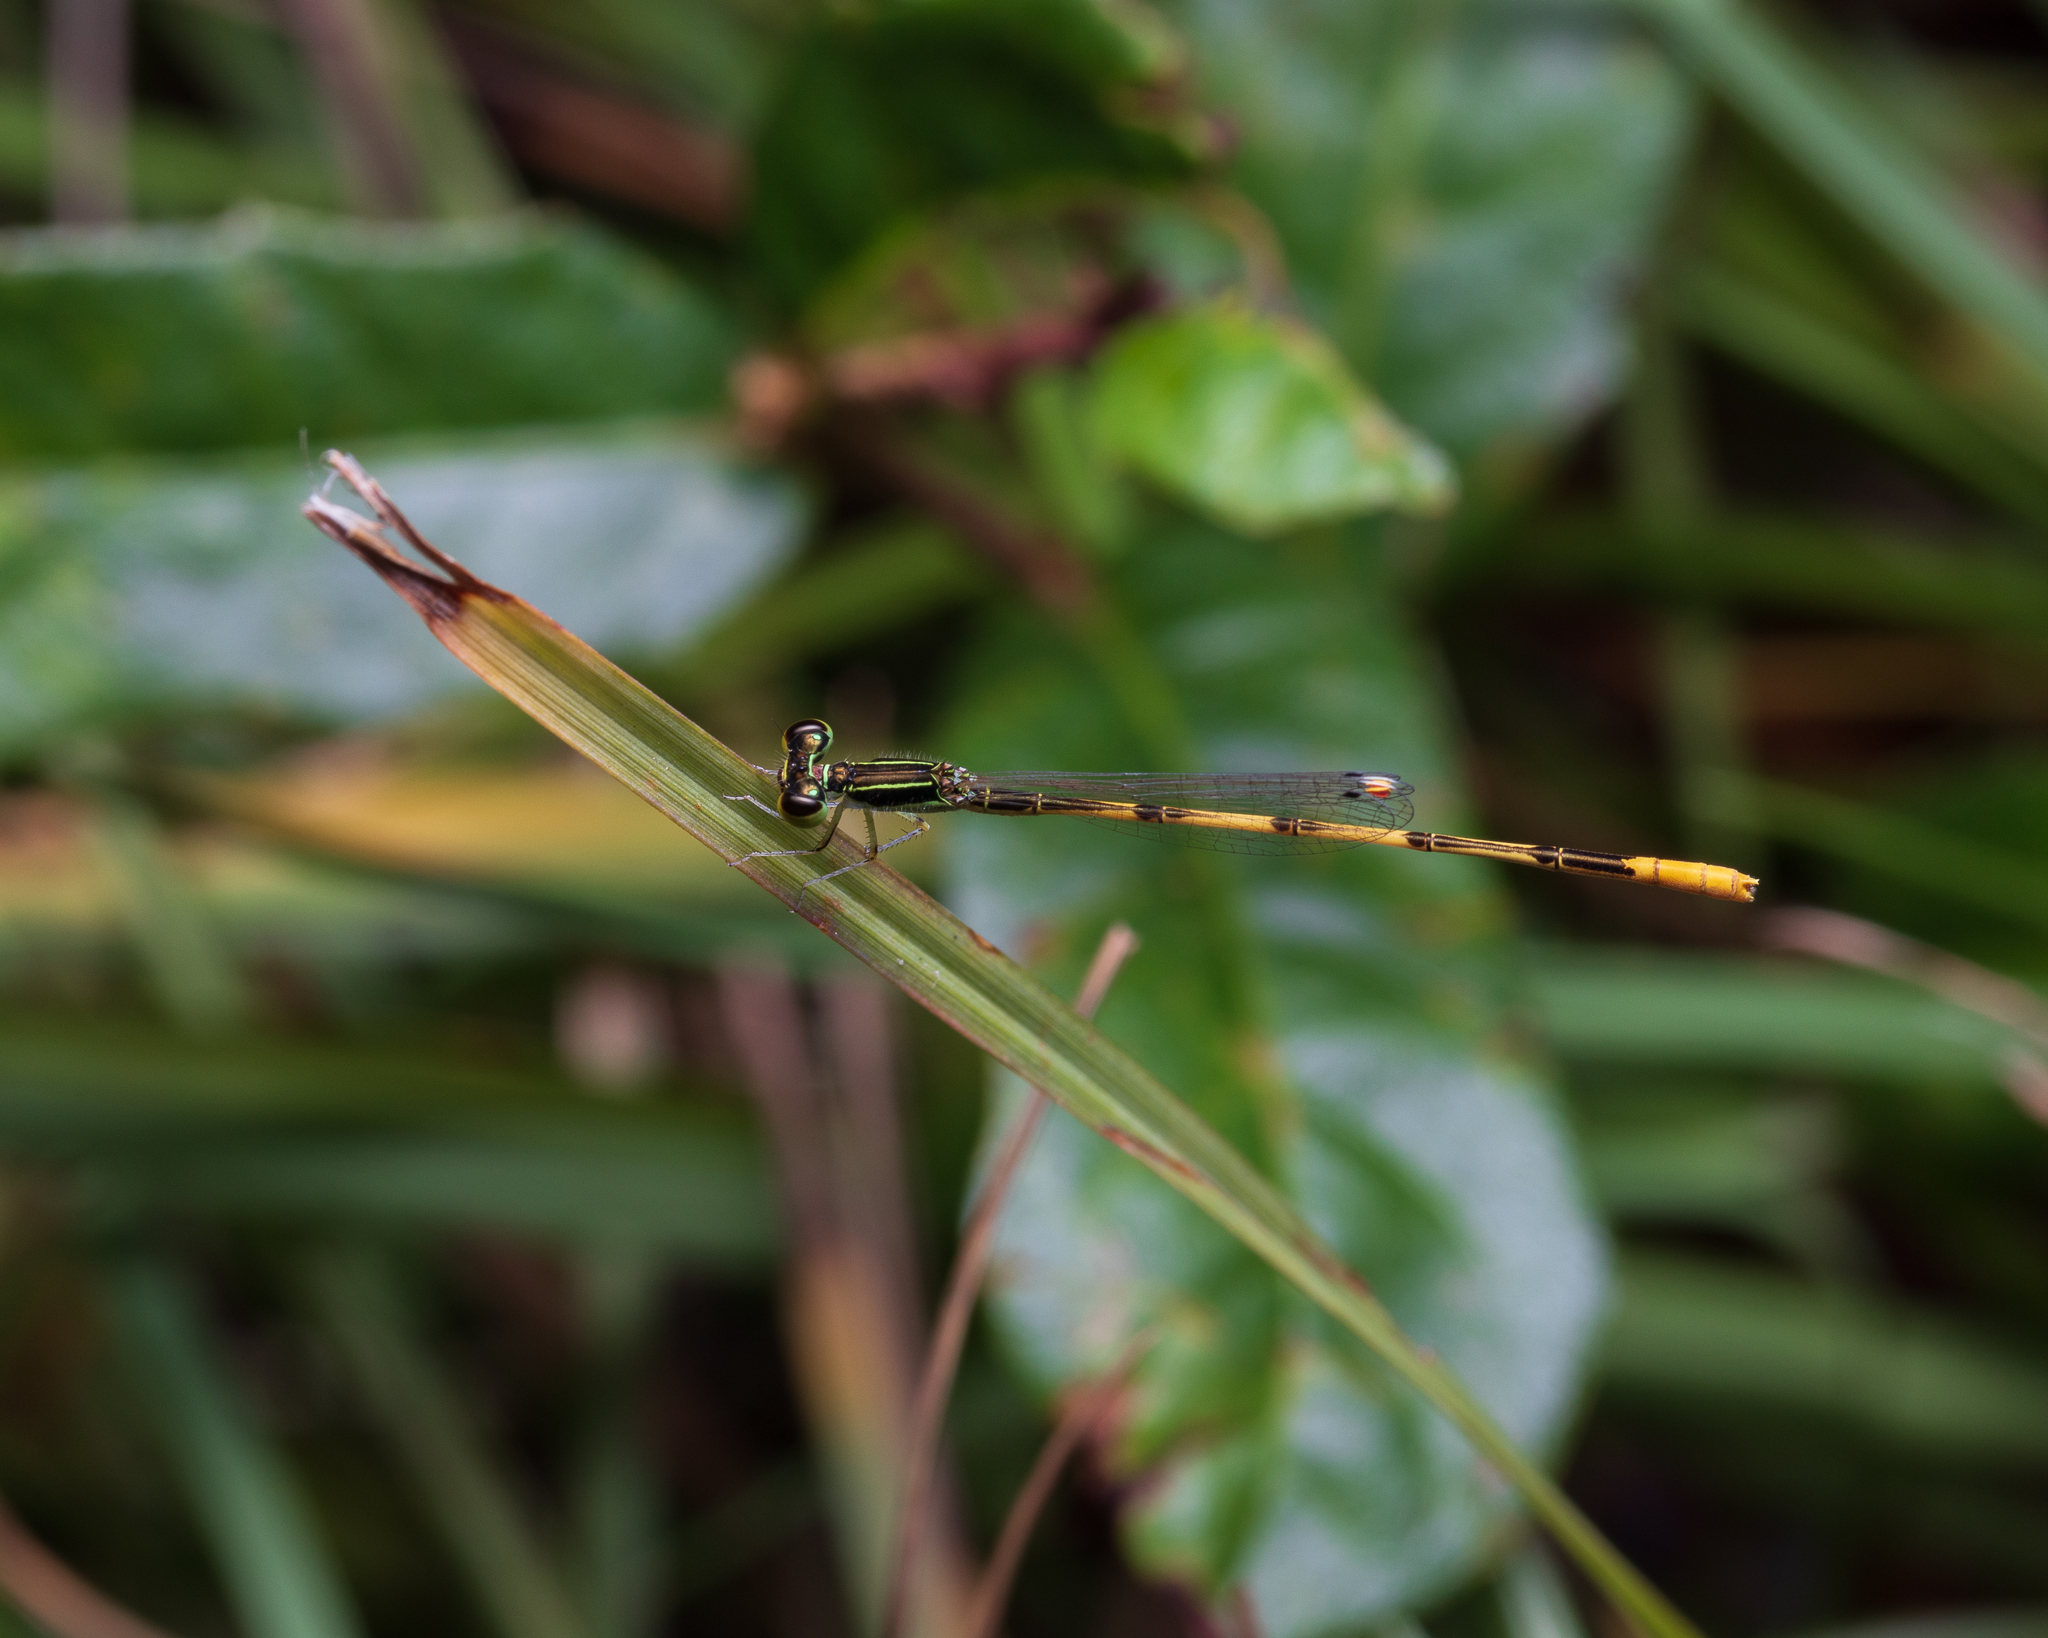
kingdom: Animalia
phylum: Arthropoda
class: Insecta
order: Odonata
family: Coenagrionidae
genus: Ischnura
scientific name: Ischnura hastata
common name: Citrine forktail
